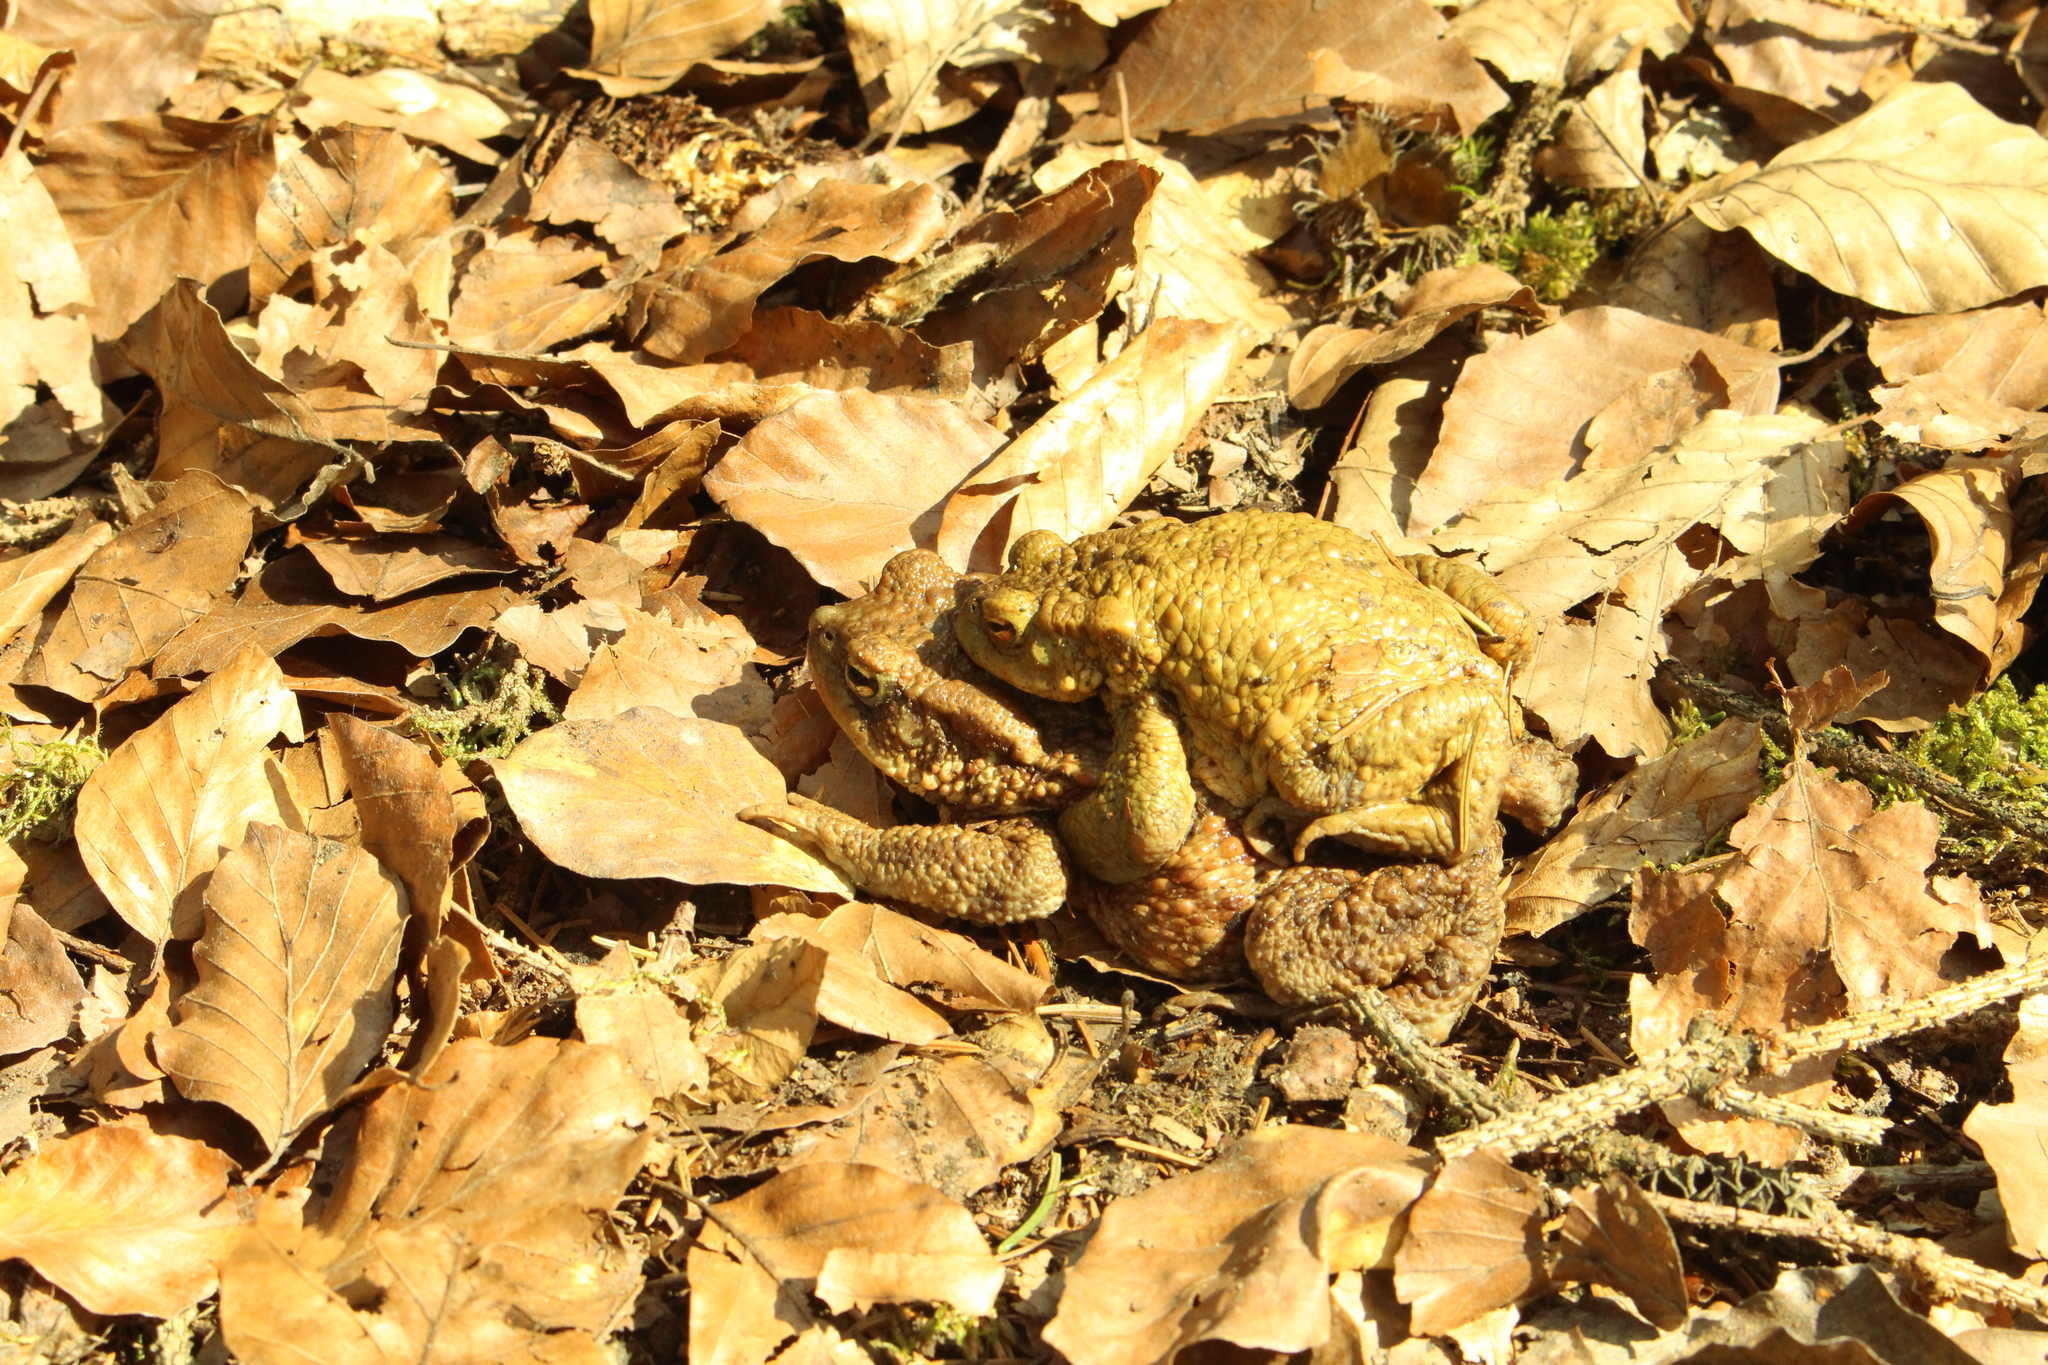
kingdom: Animalia
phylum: Chordata
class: Amphibia
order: Anura
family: Bufonidae
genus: Bufo
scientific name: Bufo bufo
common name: Common toad
